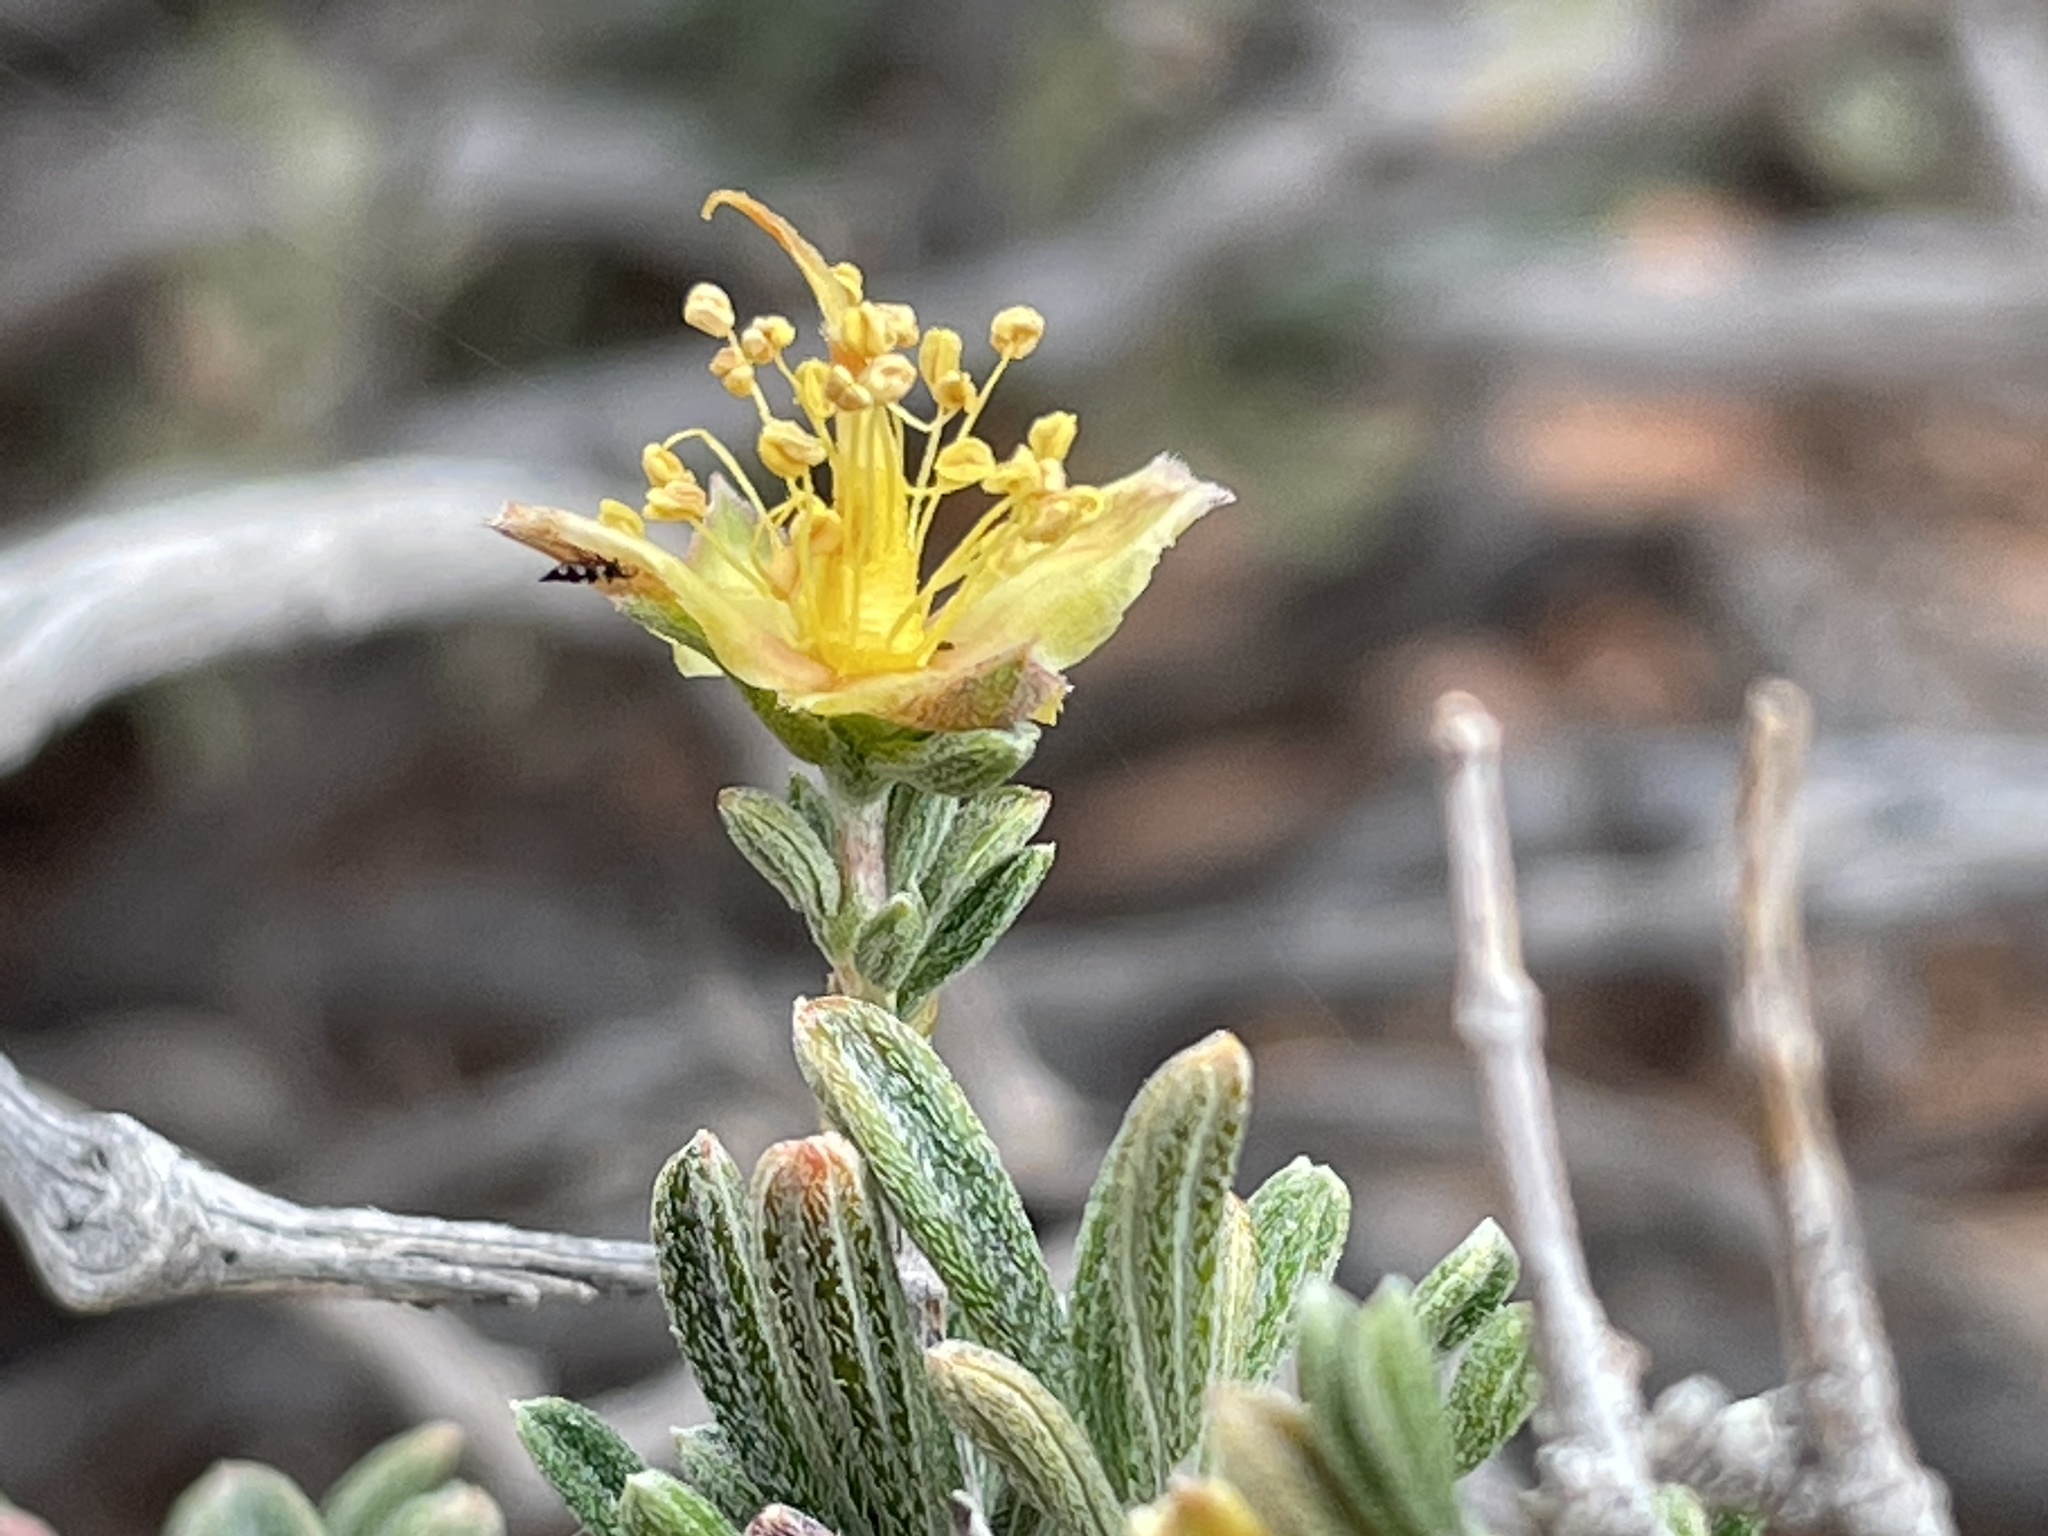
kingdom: Plantae
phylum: Tracheophyta
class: Magnoliopsida
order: Rosales
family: Rosaceae
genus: Coleogyne
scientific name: Coleogyne ramosissima
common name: Blackbrush
